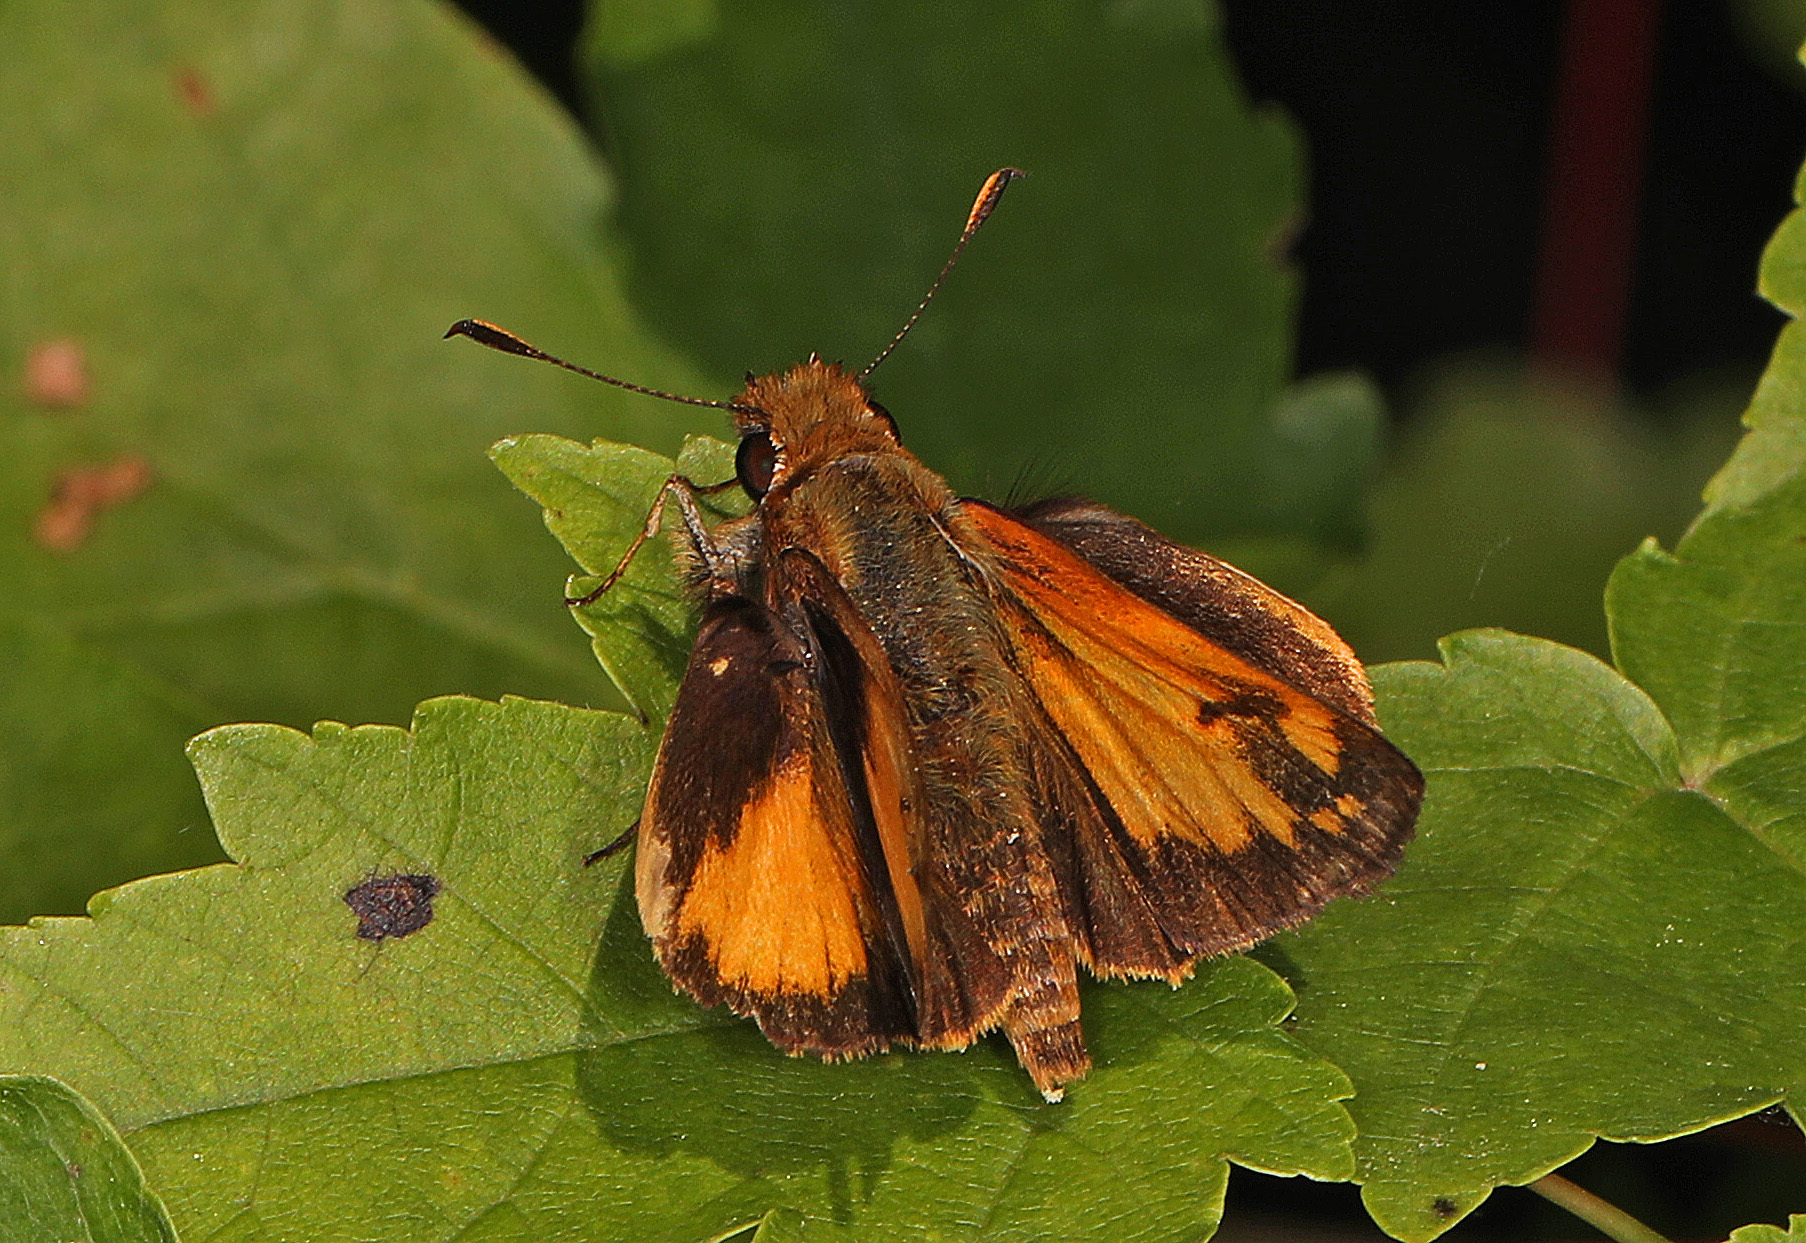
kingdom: Animalia
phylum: Arthropoda
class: Insecta
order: Lepidoptera
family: Hesperiidae
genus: Lon
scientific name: Lon zabulon
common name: Zabulon skipper
